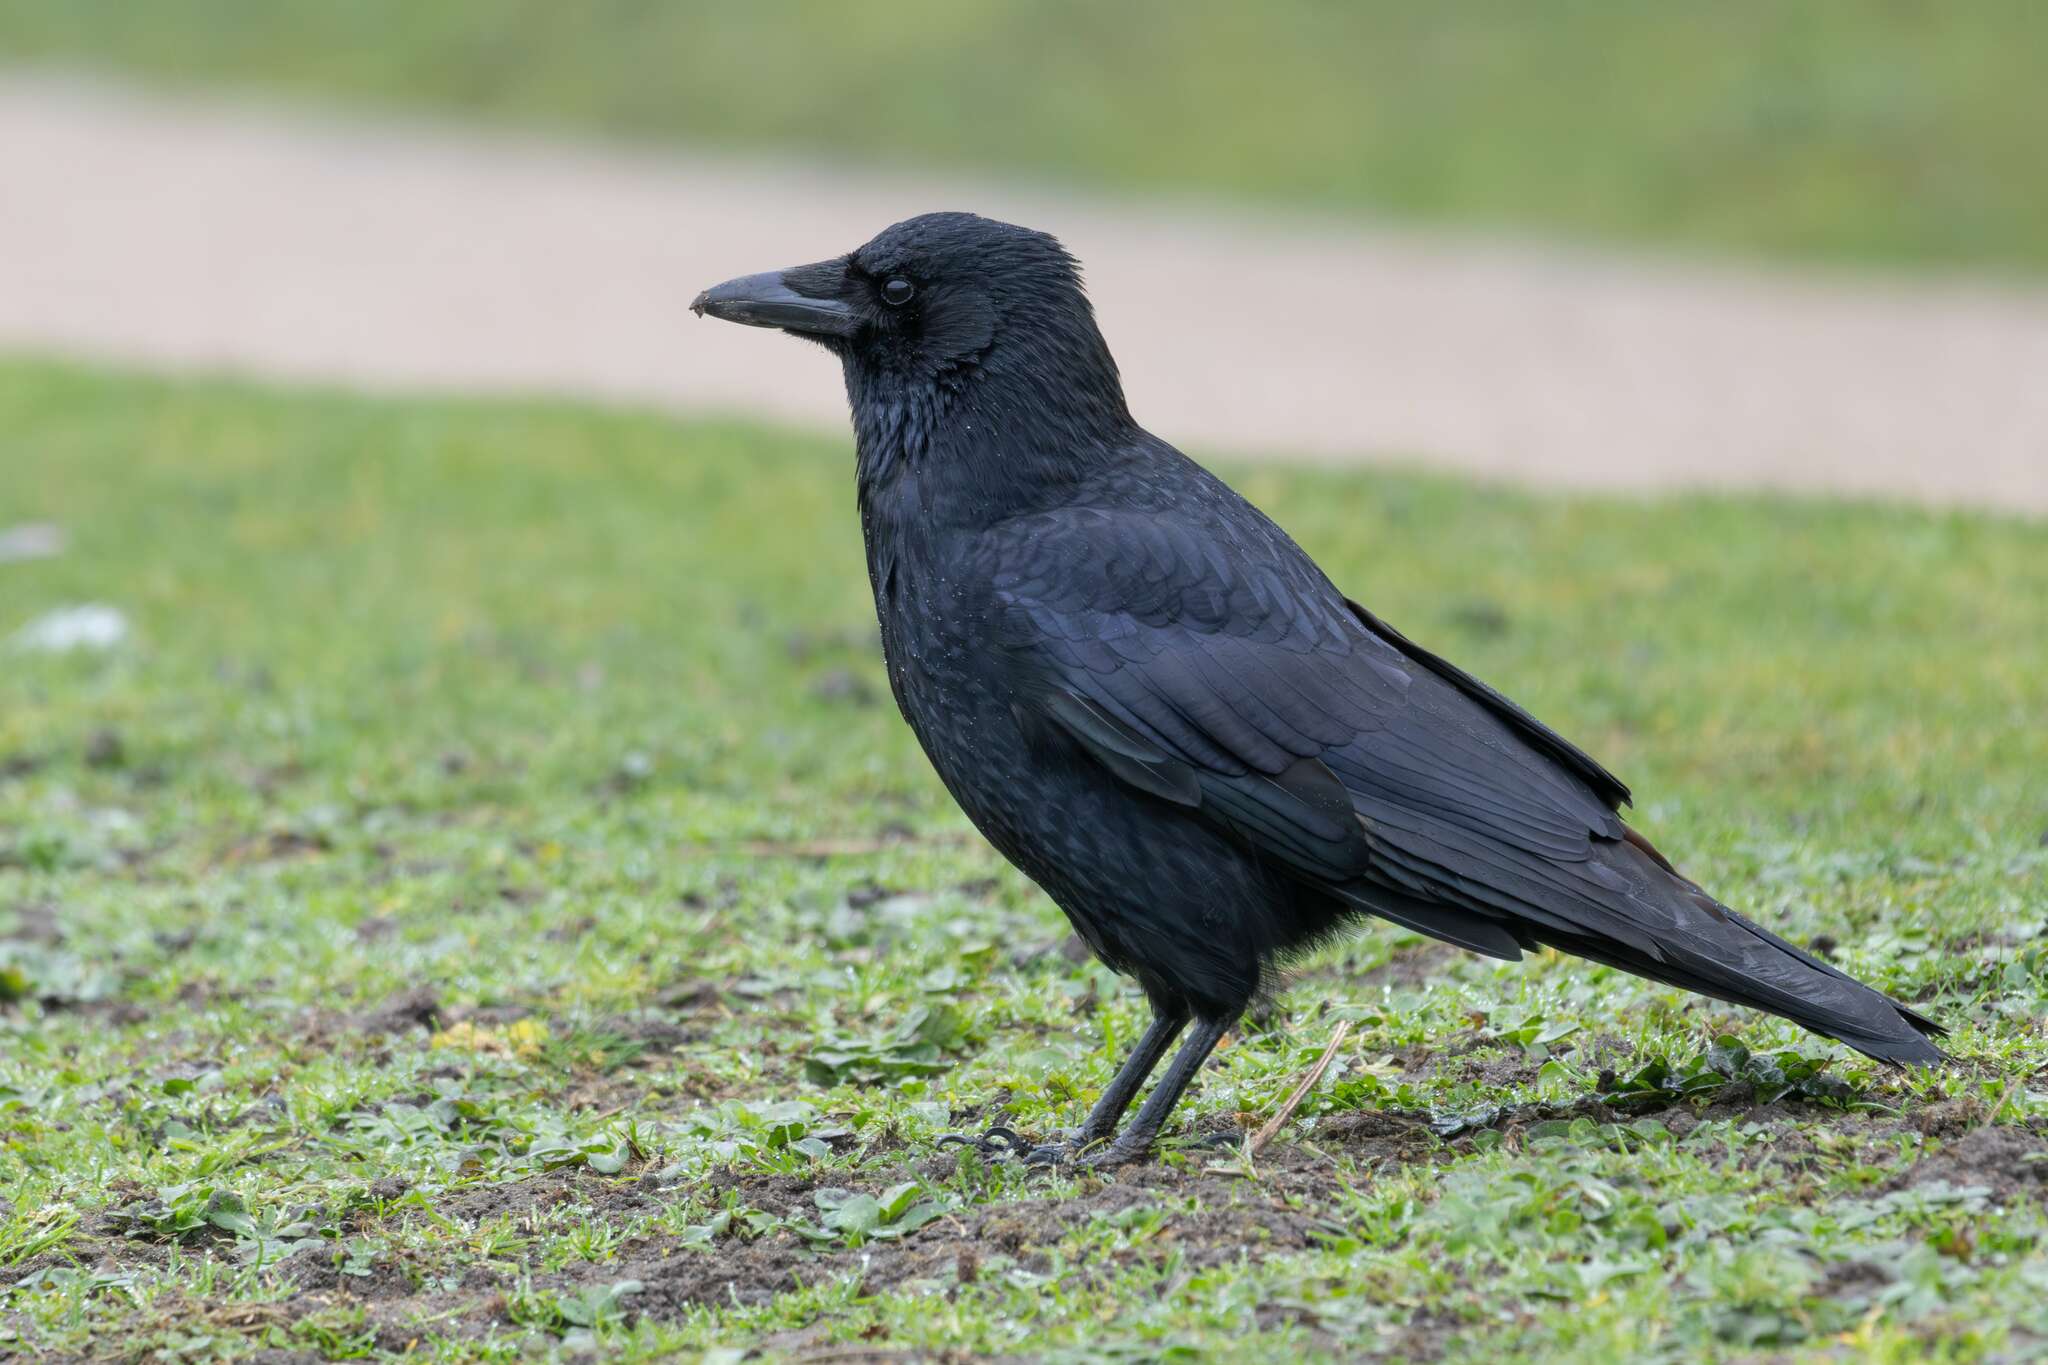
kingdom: Animalia
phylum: Chordata
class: Aves
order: Passeriformes
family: Corvidae
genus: Corvus
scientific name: Corvus corone
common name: Carrion crow
